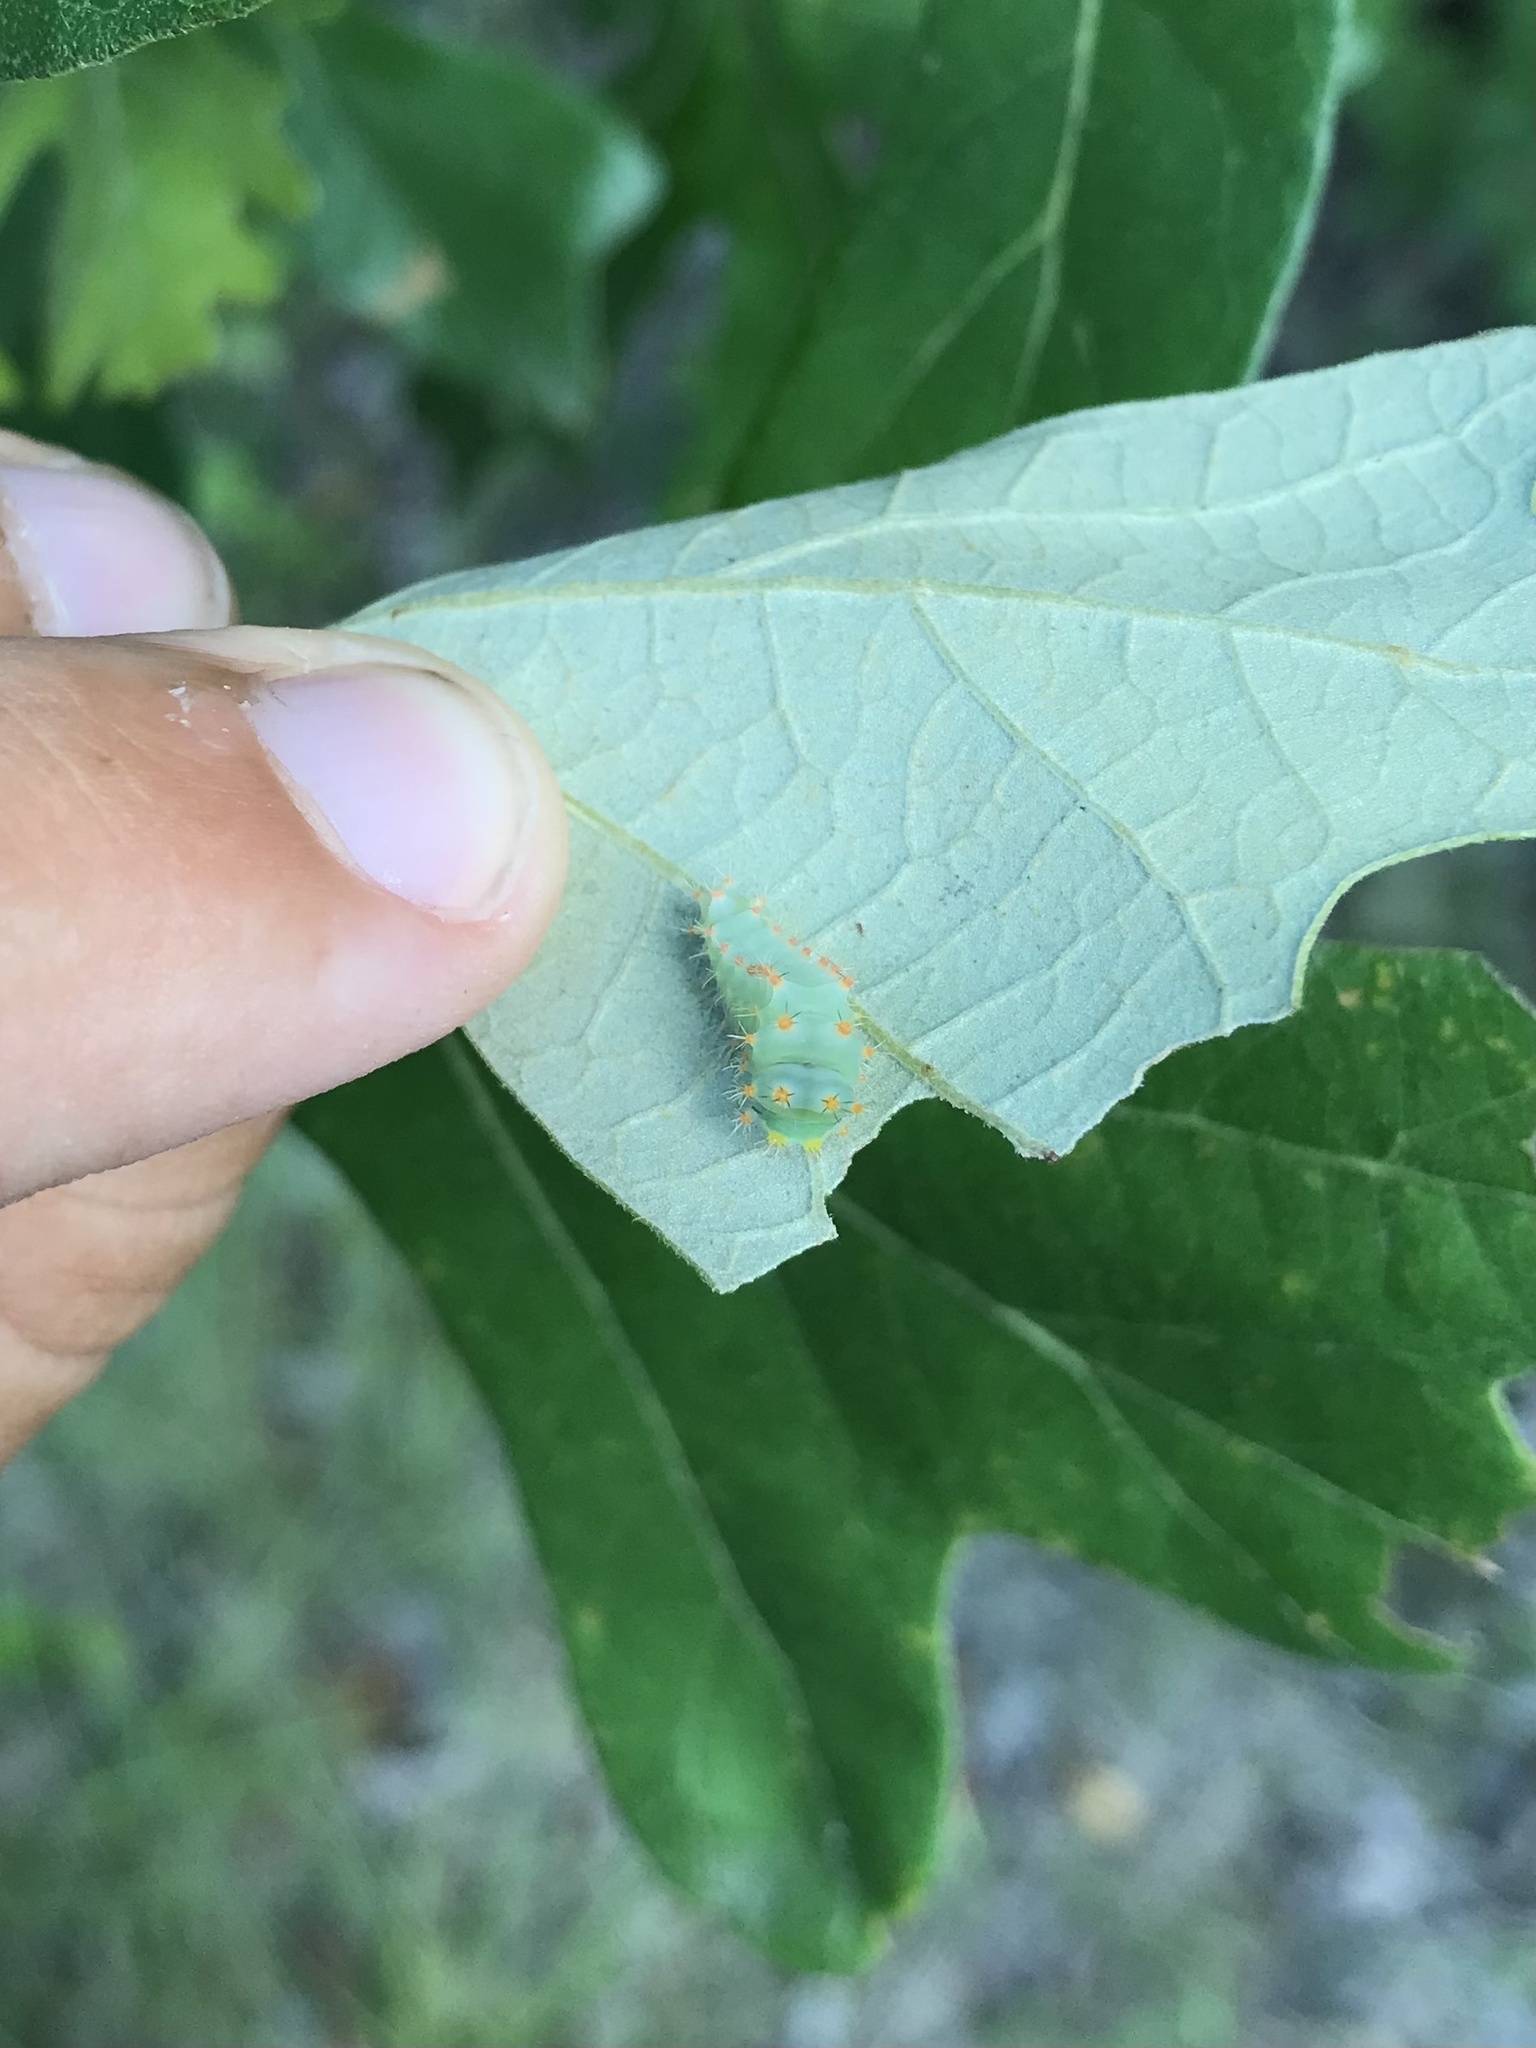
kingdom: Animalia
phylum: Arthropoda
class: Insecta
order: Lepidoptera
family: Saturniidae
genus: Antheraea
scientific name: Antheraea polyphemus
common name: Polyphemus moth
